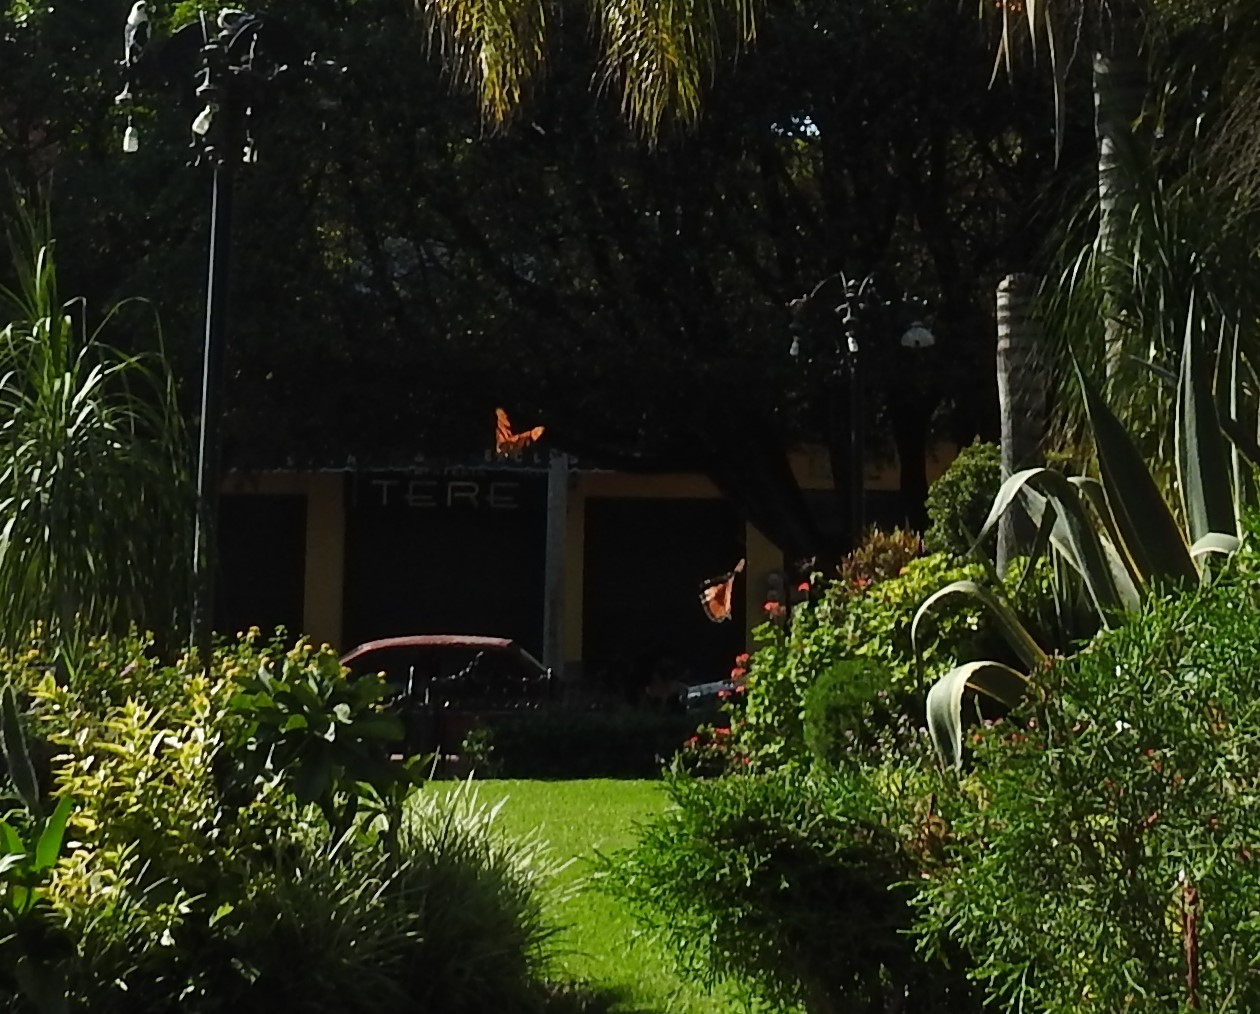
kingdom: Animalia
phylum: Arthropoda
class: Insecta
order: Lepidoptera
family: Nymphalidae
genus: Danaus
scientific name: Danaus plexippus
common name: Monarch
